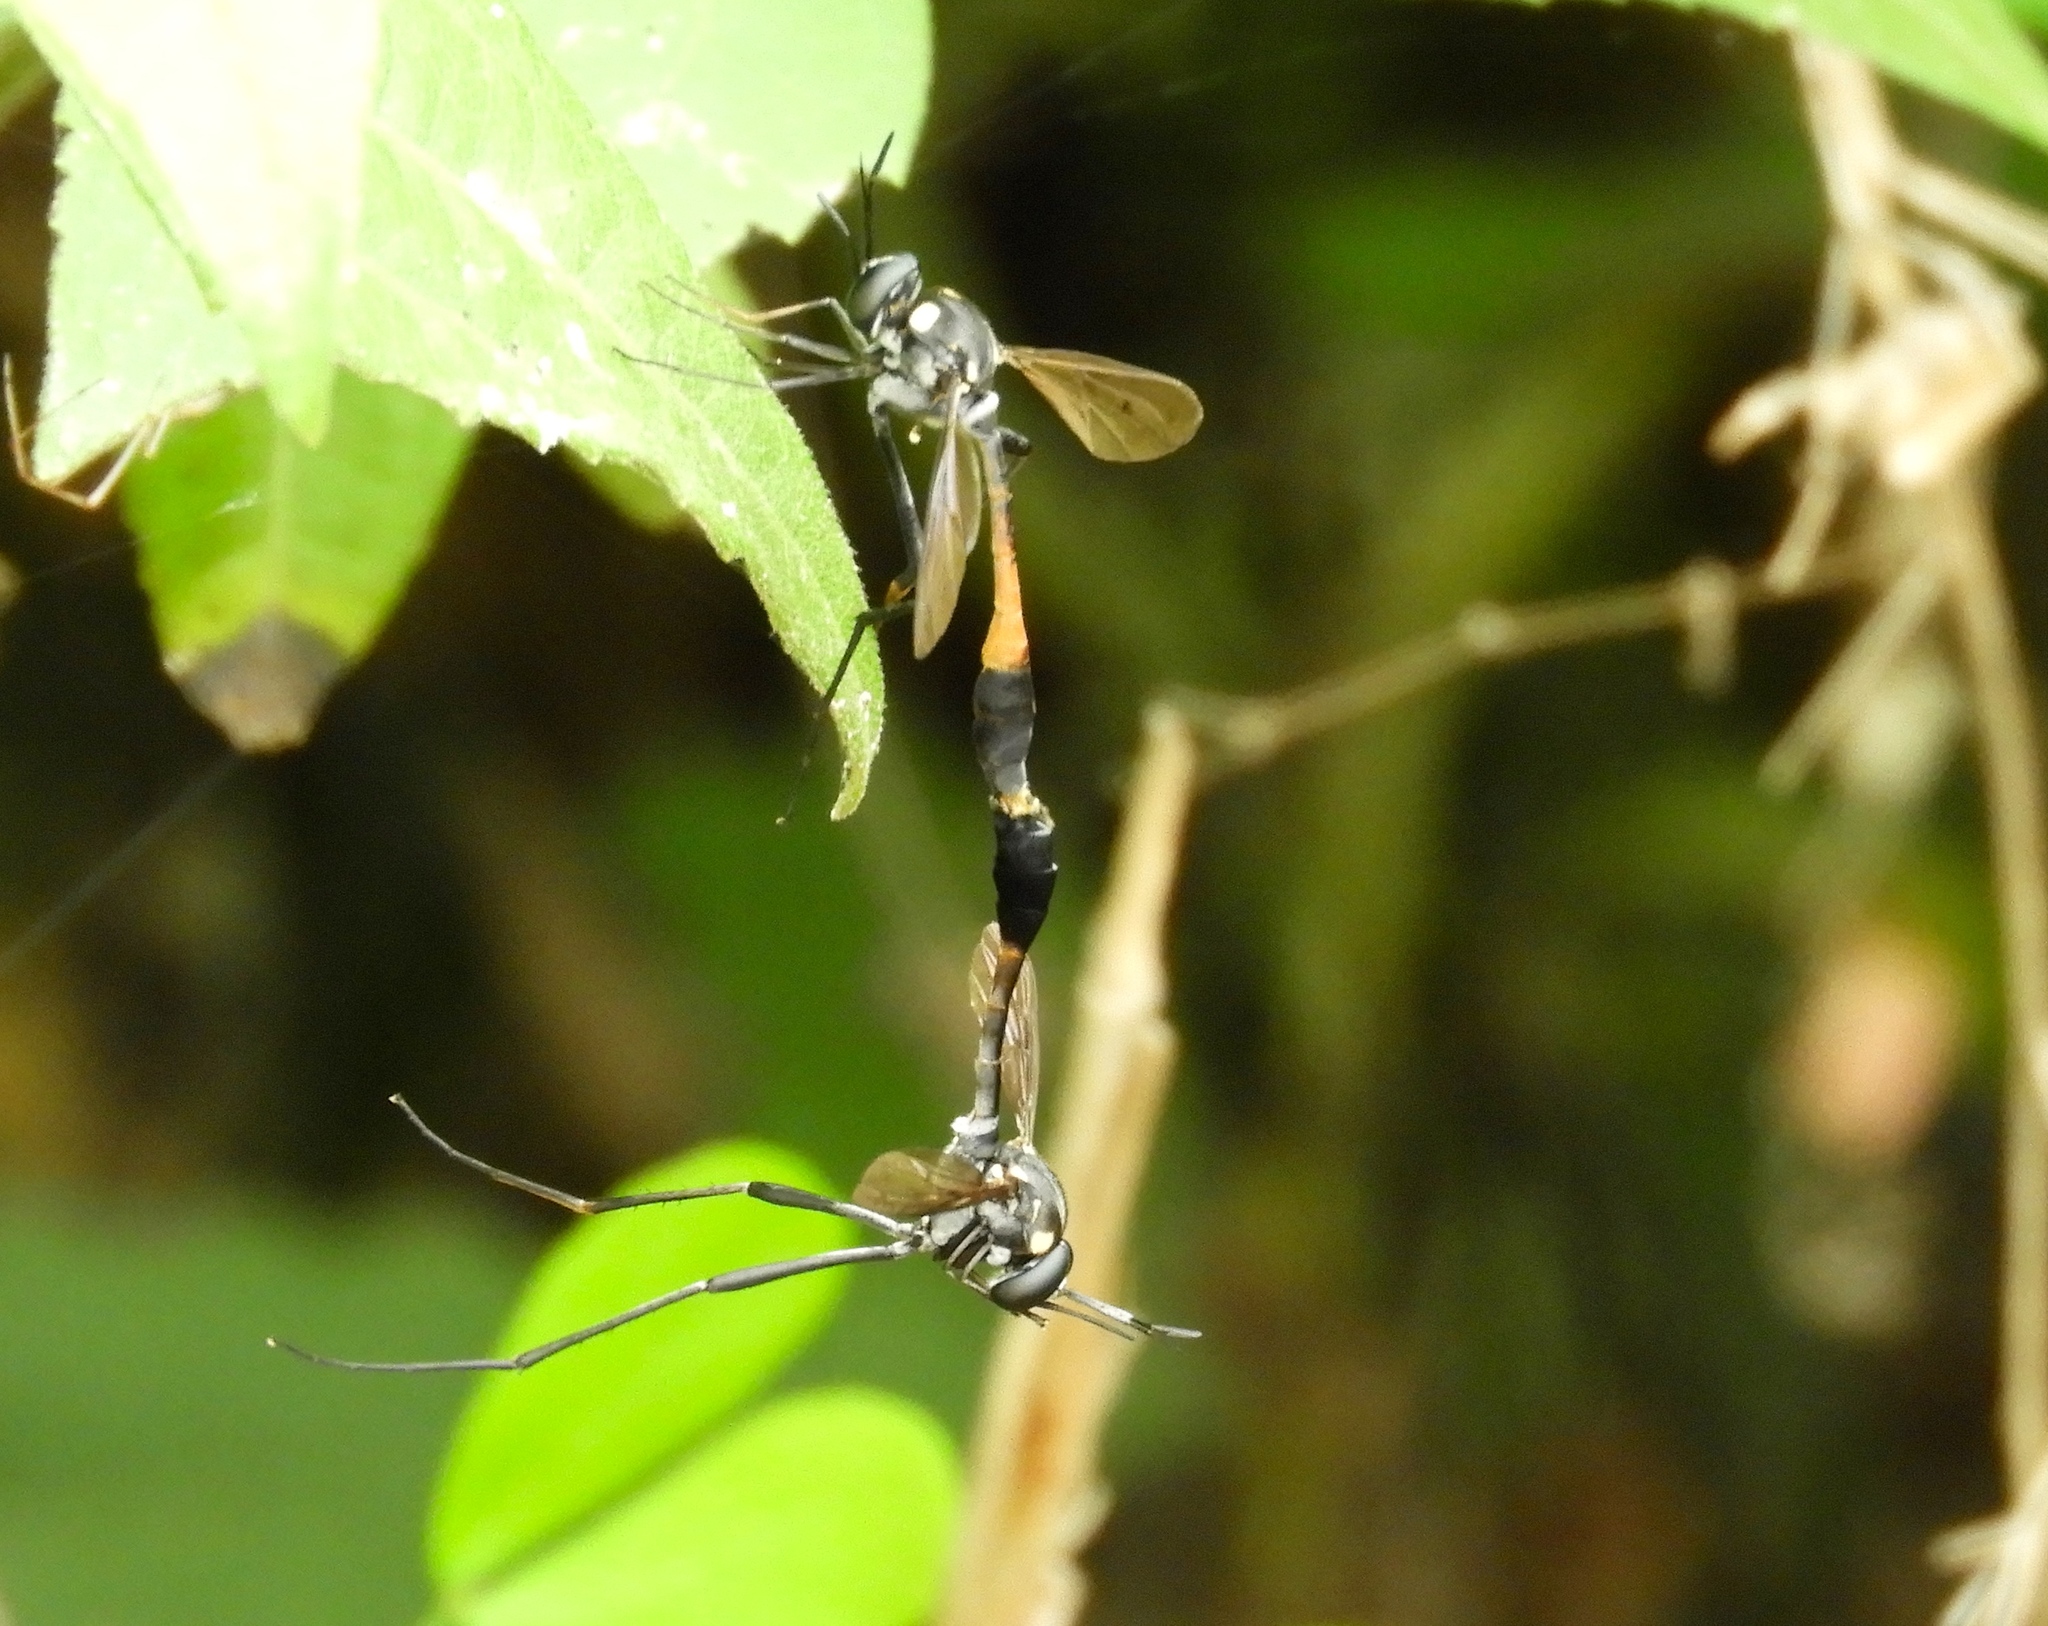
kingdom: Animalia
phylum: Arthropoda
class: Insecta
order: Diptera
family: Bombyliidae
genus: Systropus
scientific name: Systropus
